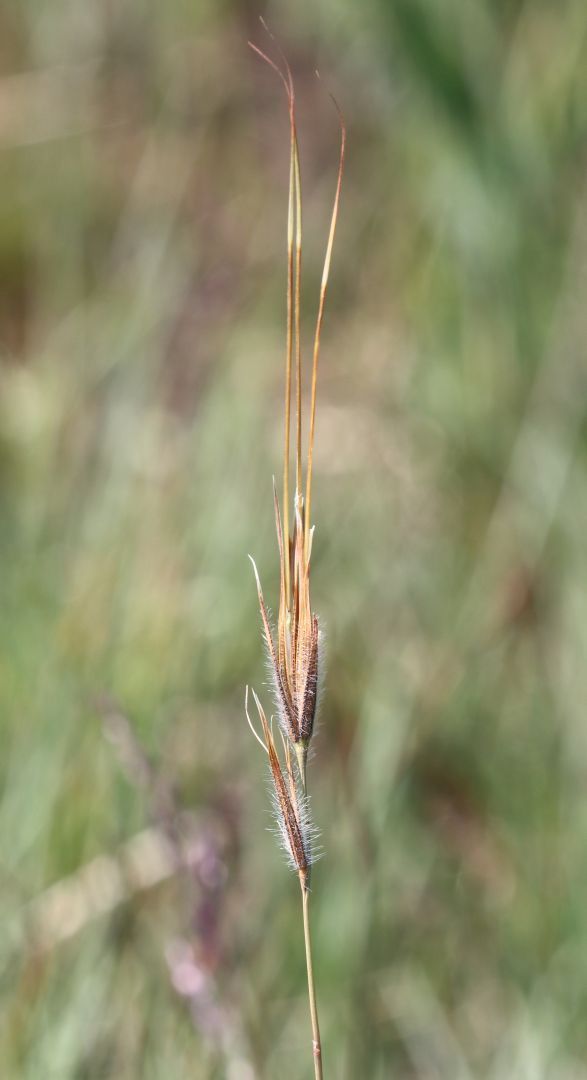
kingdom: Plantae
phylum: Tracheophyta
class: Liliopsida
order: Poales
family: Poaceae
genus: Tristachya
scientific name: Tristachya leucothrix
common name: Trident grass
